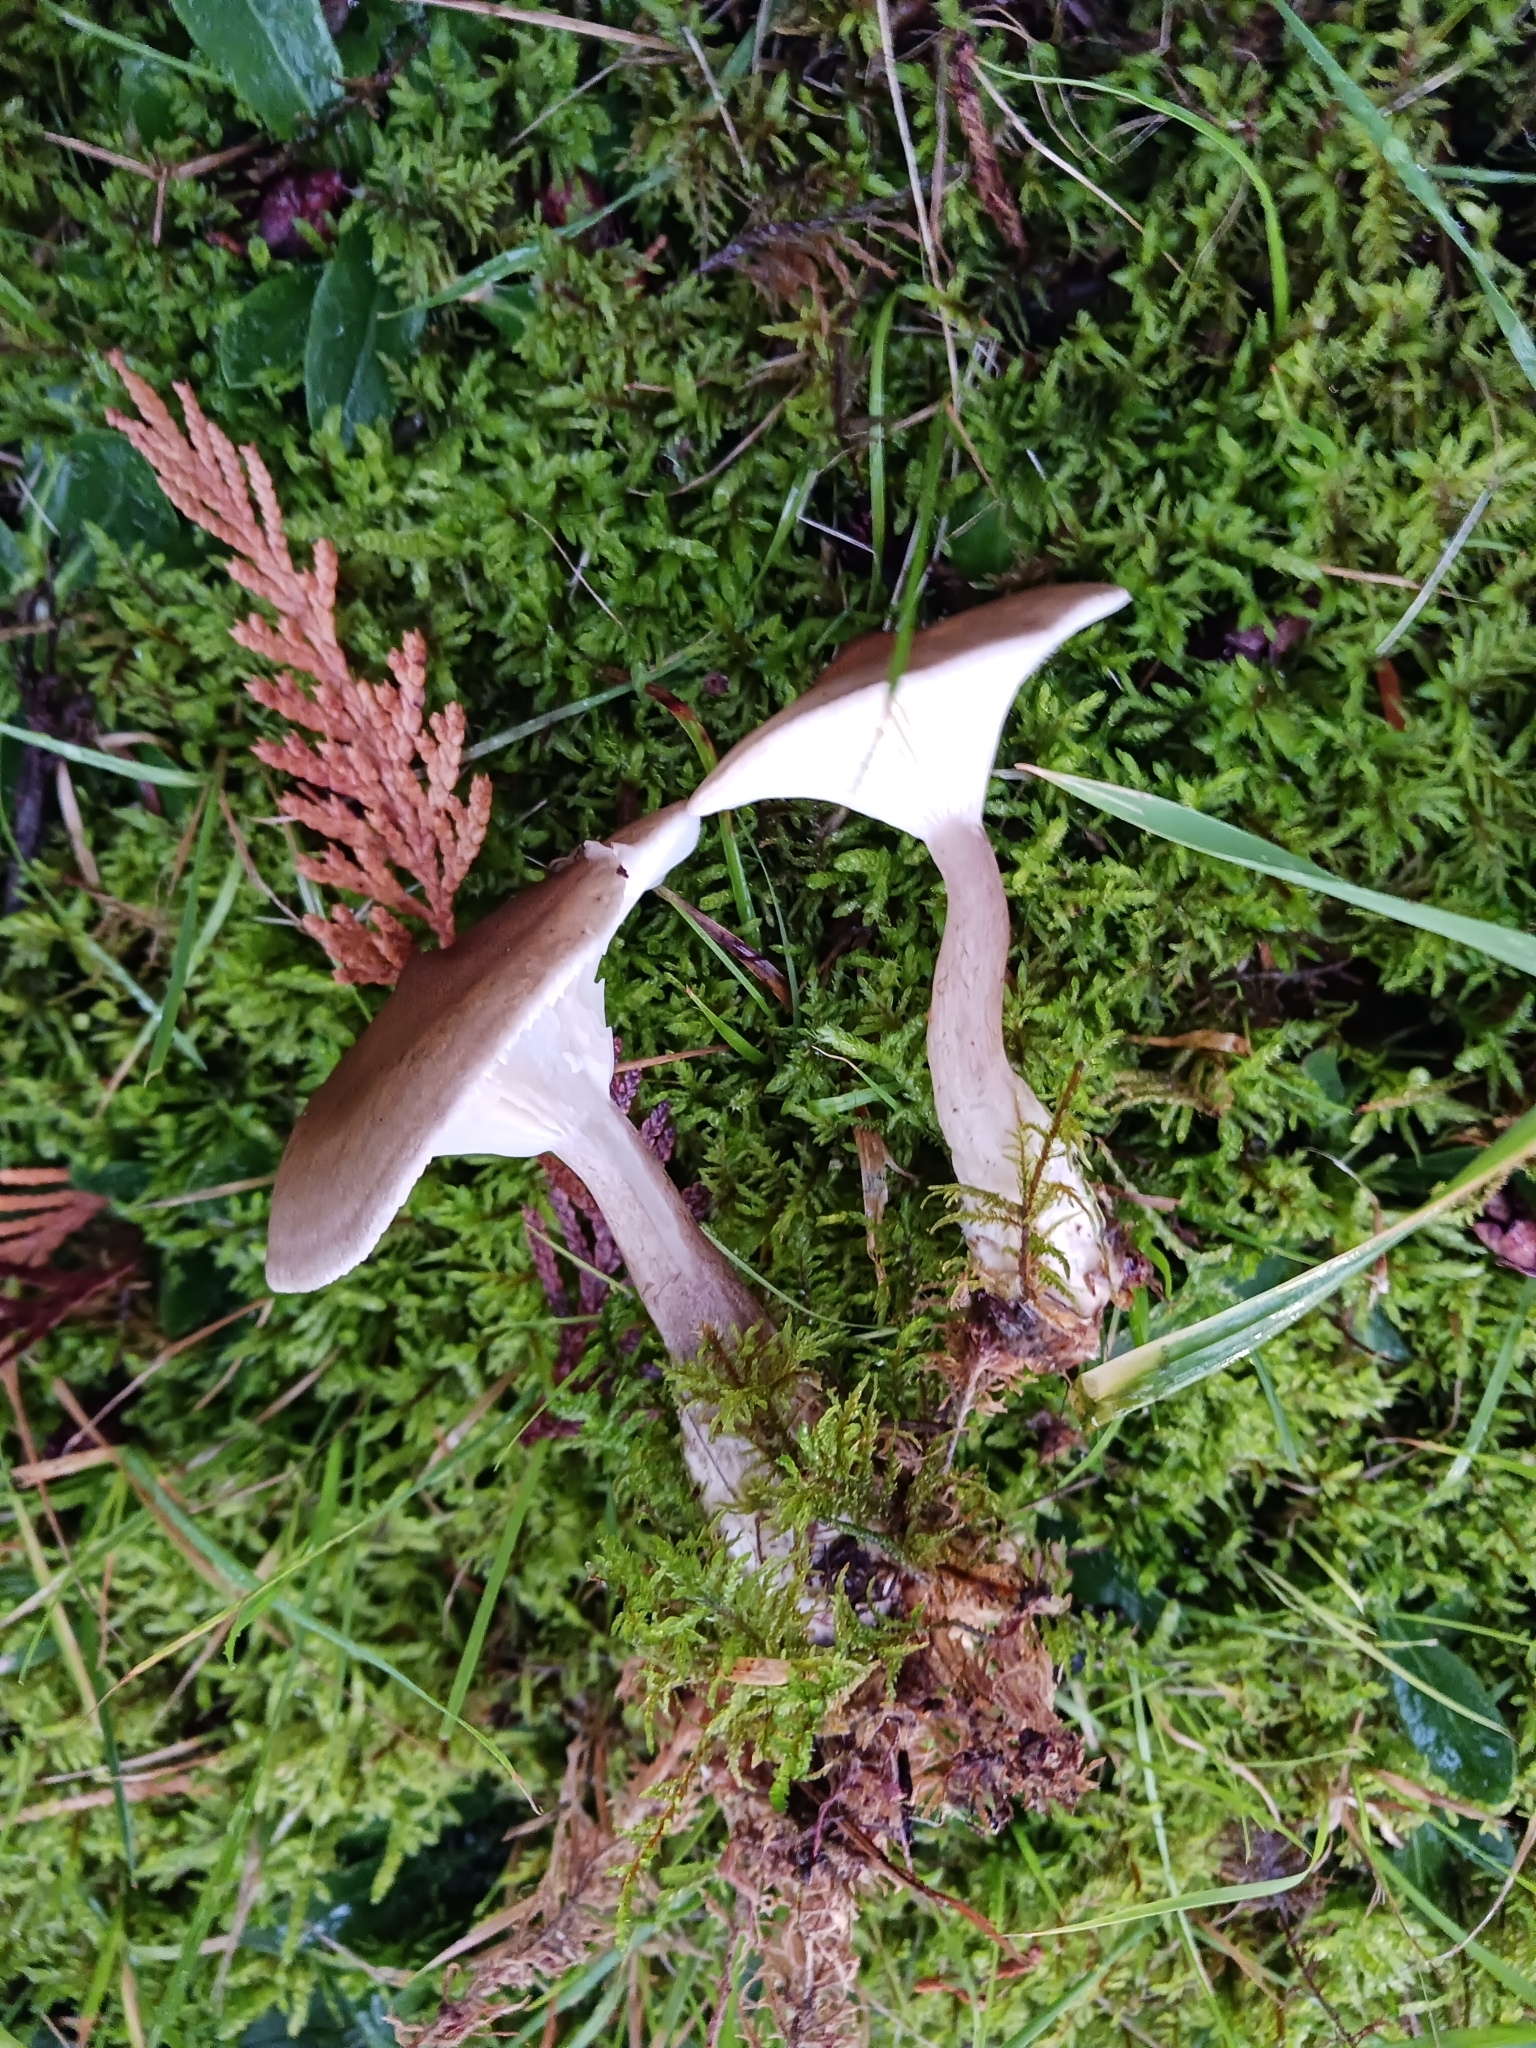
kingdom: Fungi
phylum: Basidiomycota
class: Agaricomycetes
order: Agaricales
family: Hygrophoraceae
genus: Ampulloclitocybe
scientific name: Ampulloclitocybe clavipes
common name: Club foot
